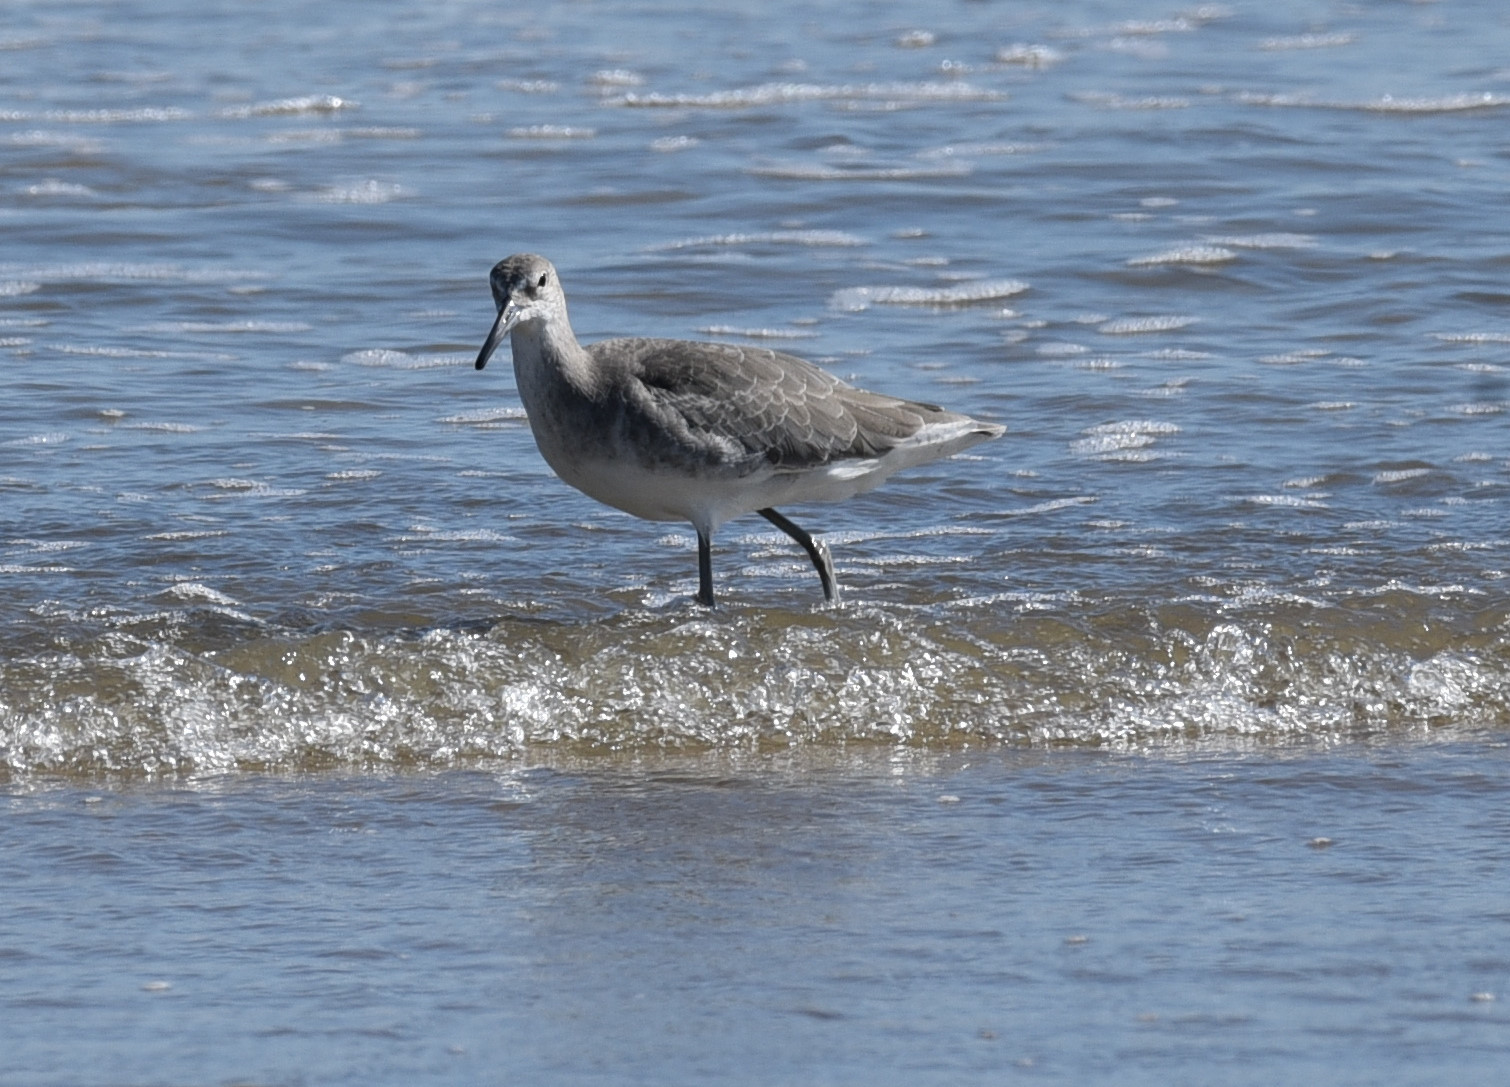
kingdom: Animalia
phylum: Chordata
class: Aves
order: Charadriiformes
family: Scolopacidae
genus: Tringa
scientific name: Tringa semipalmata
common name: Willet
